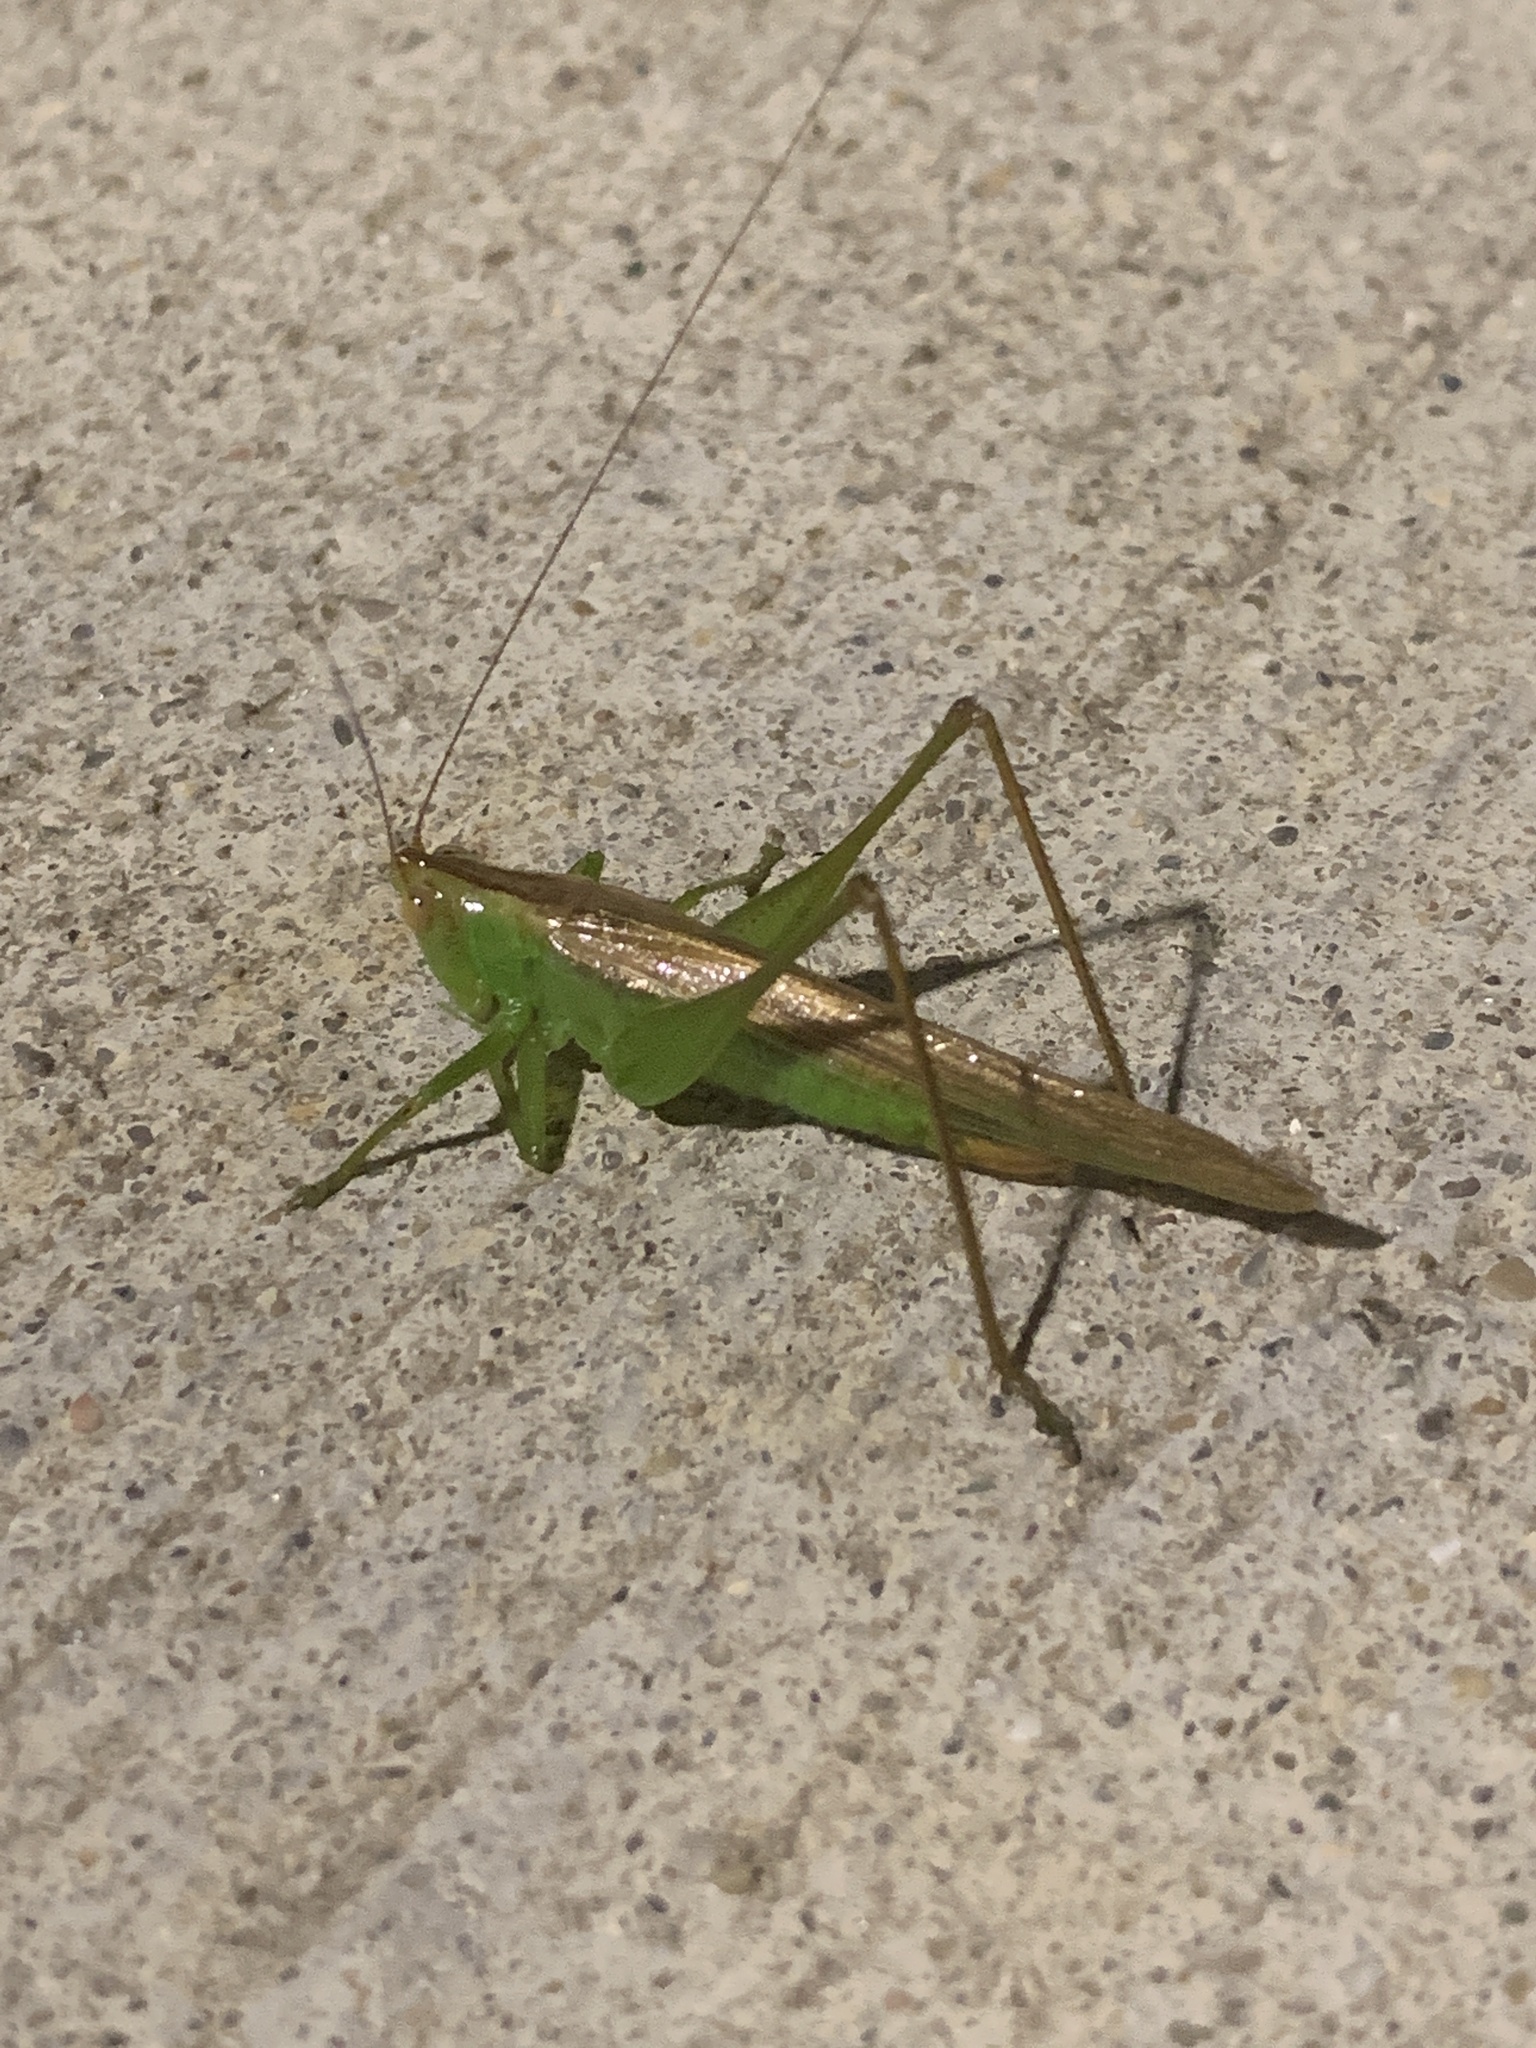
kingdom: Animalia
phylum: Arthropoda
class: Insecta
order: Orthoptera
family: Tettigoniidae
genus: Conocephalus
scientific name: Conocephalus fasciatus
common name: Slender meadow katydid
